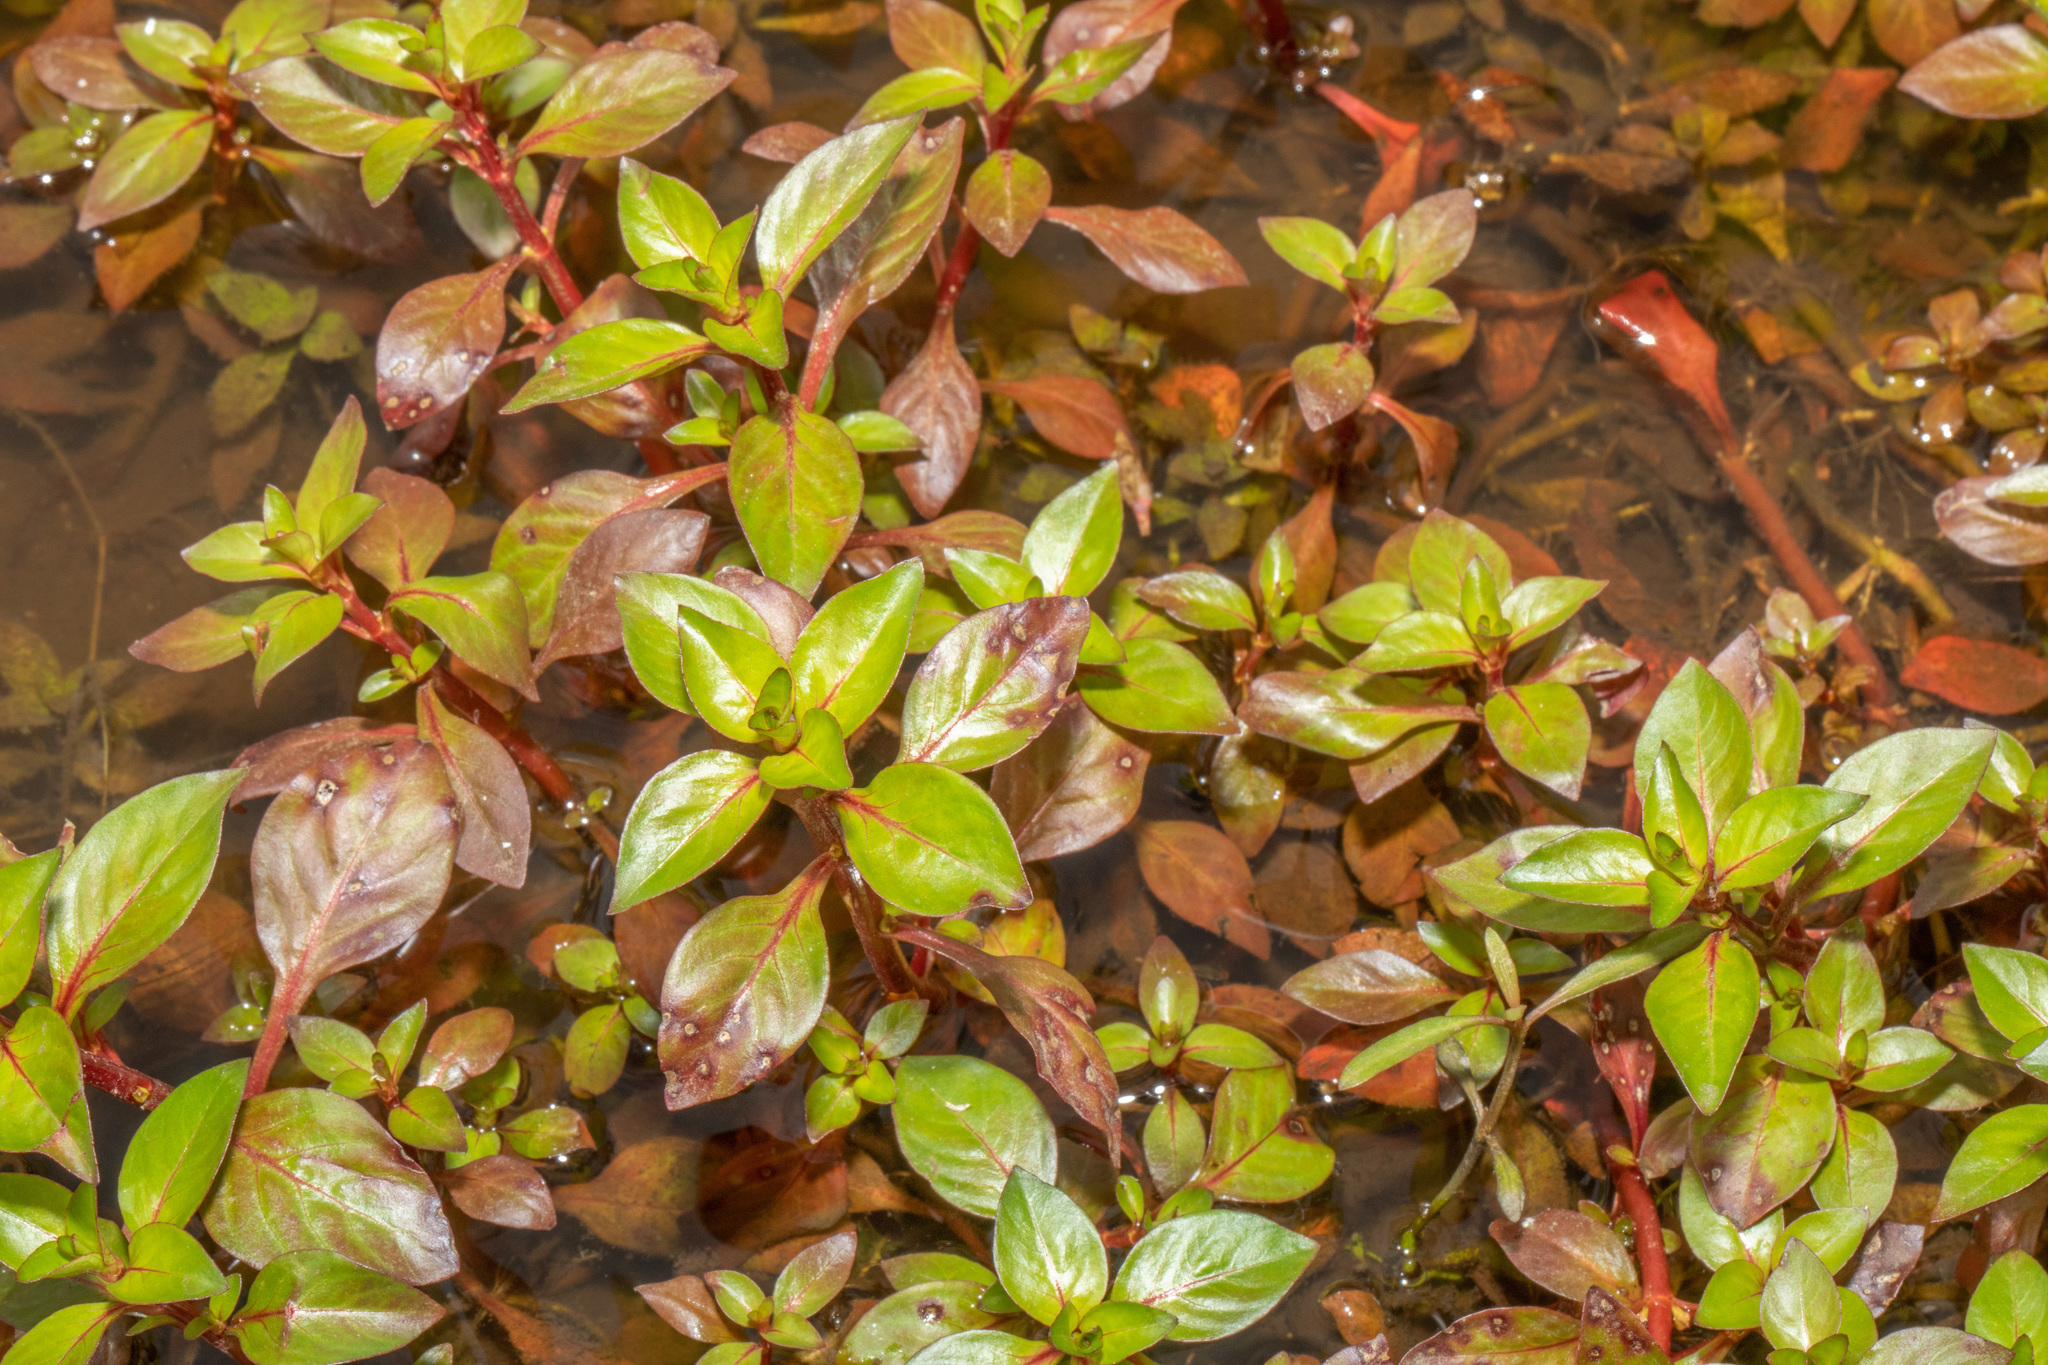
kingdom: Plantae
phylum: Tracheophyta
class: Magnoliopsida
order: Myrtales
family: Onagraceae
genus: Ludwigia
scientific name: Ludwigia palustris
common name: Hampshire-purslane
